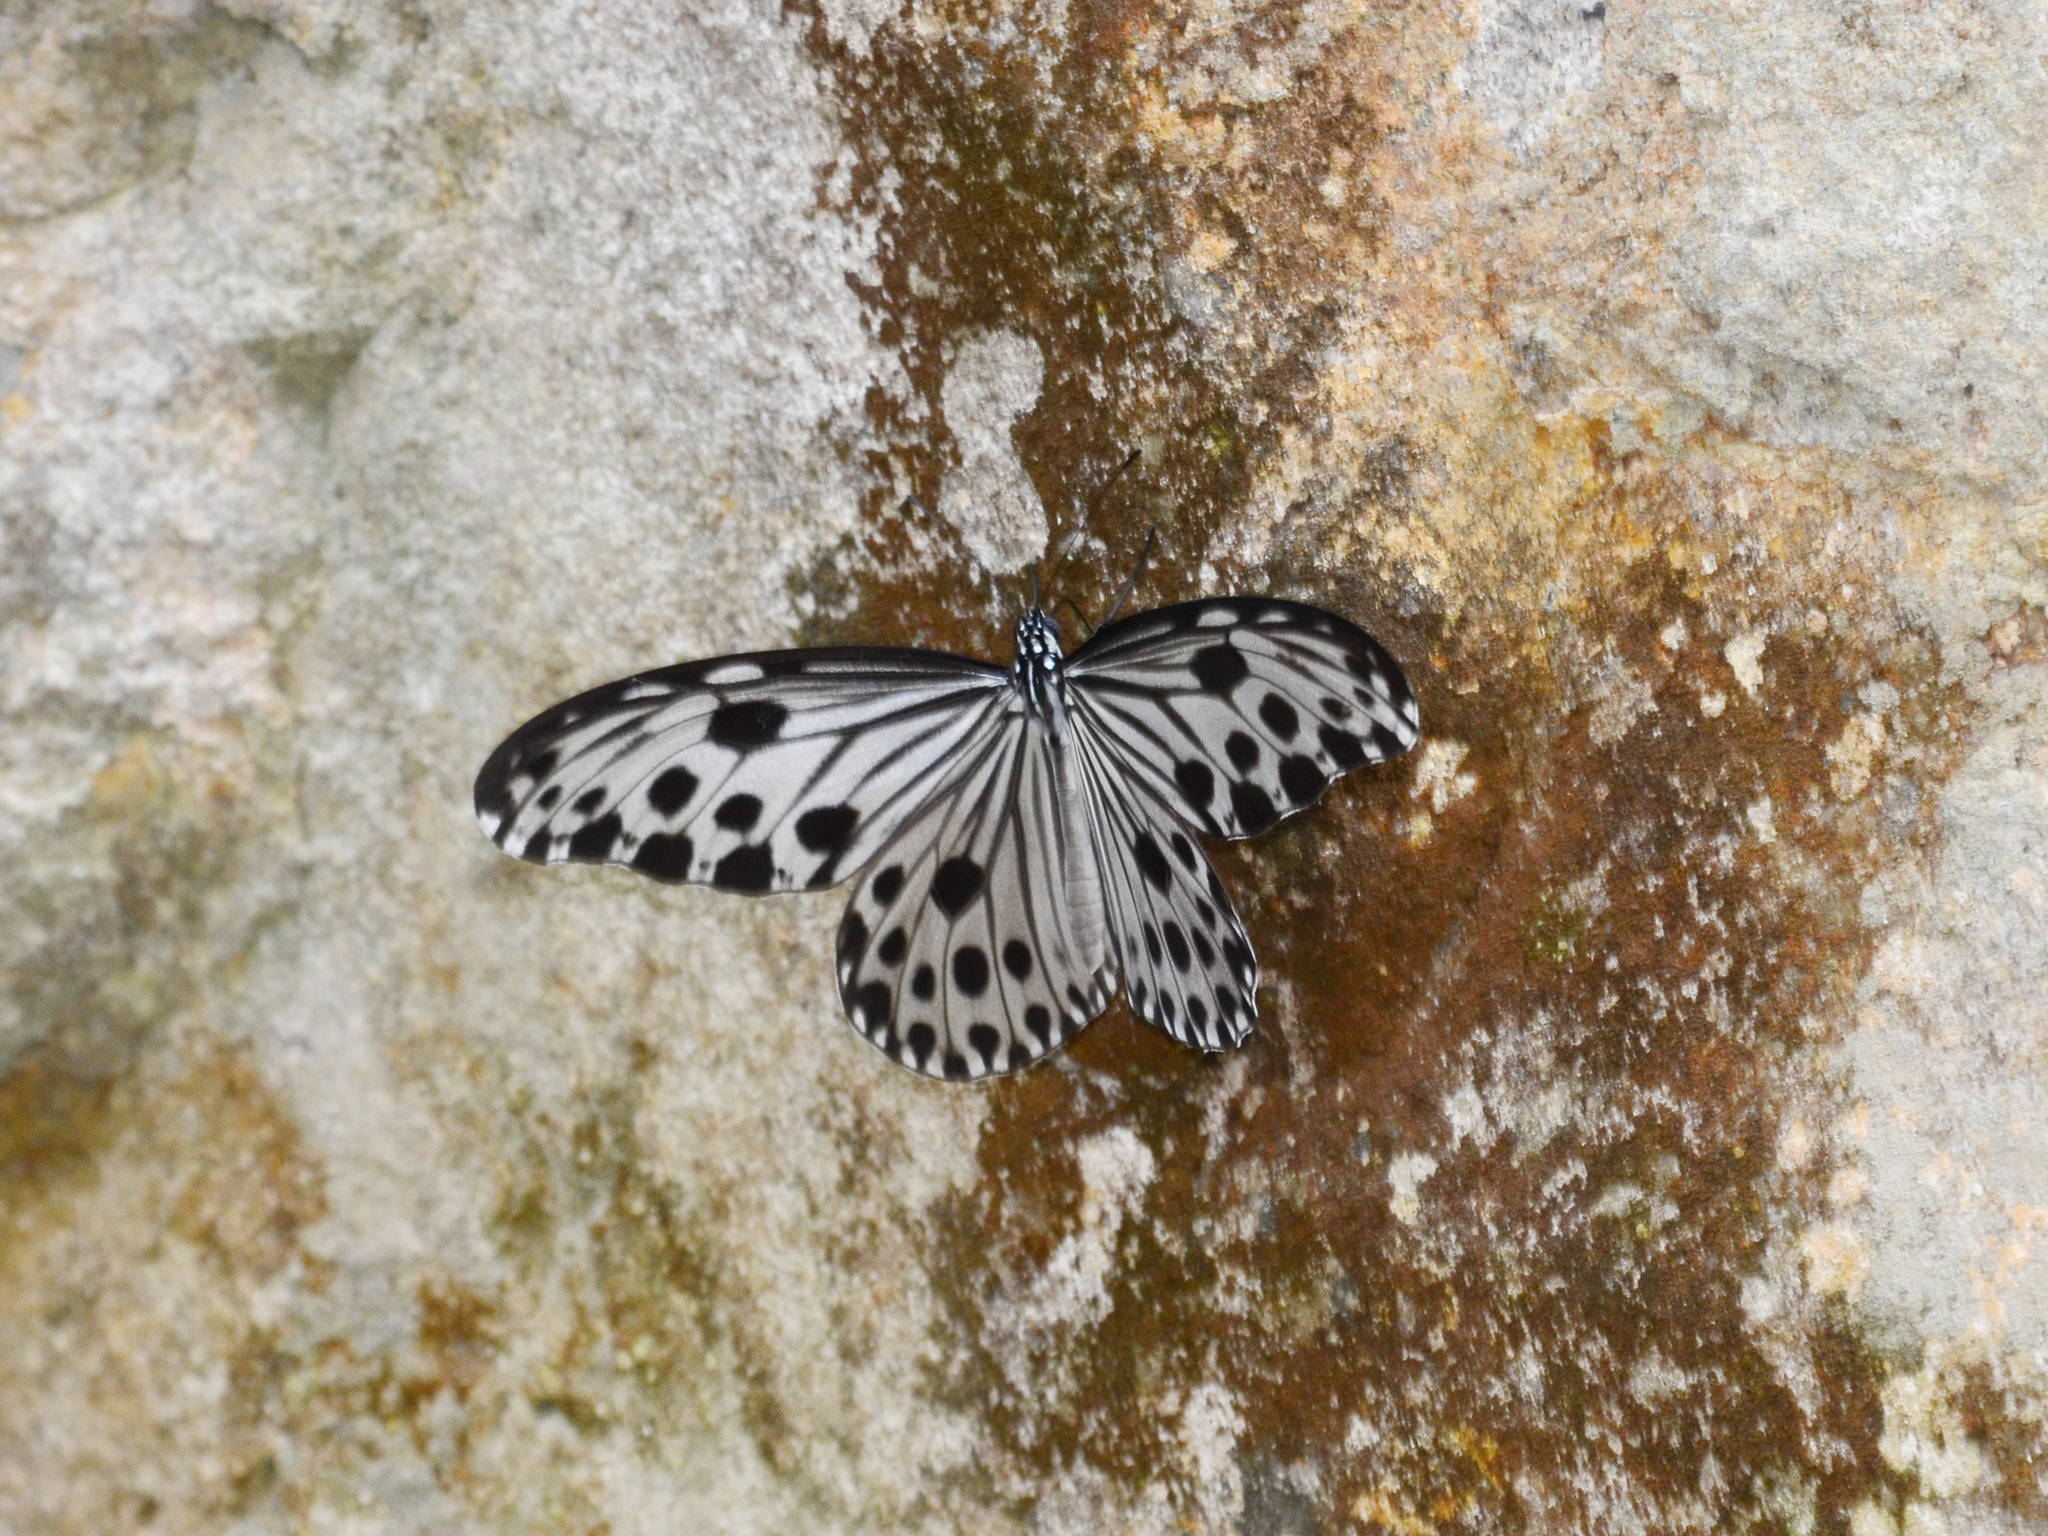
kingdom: Animalia
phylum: Arthropoda
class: Insecta
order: Lepidoptera
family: Nymphalidae
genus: Ideopsis
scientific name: Ideopsis gaura
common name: Smaller wood nymph
